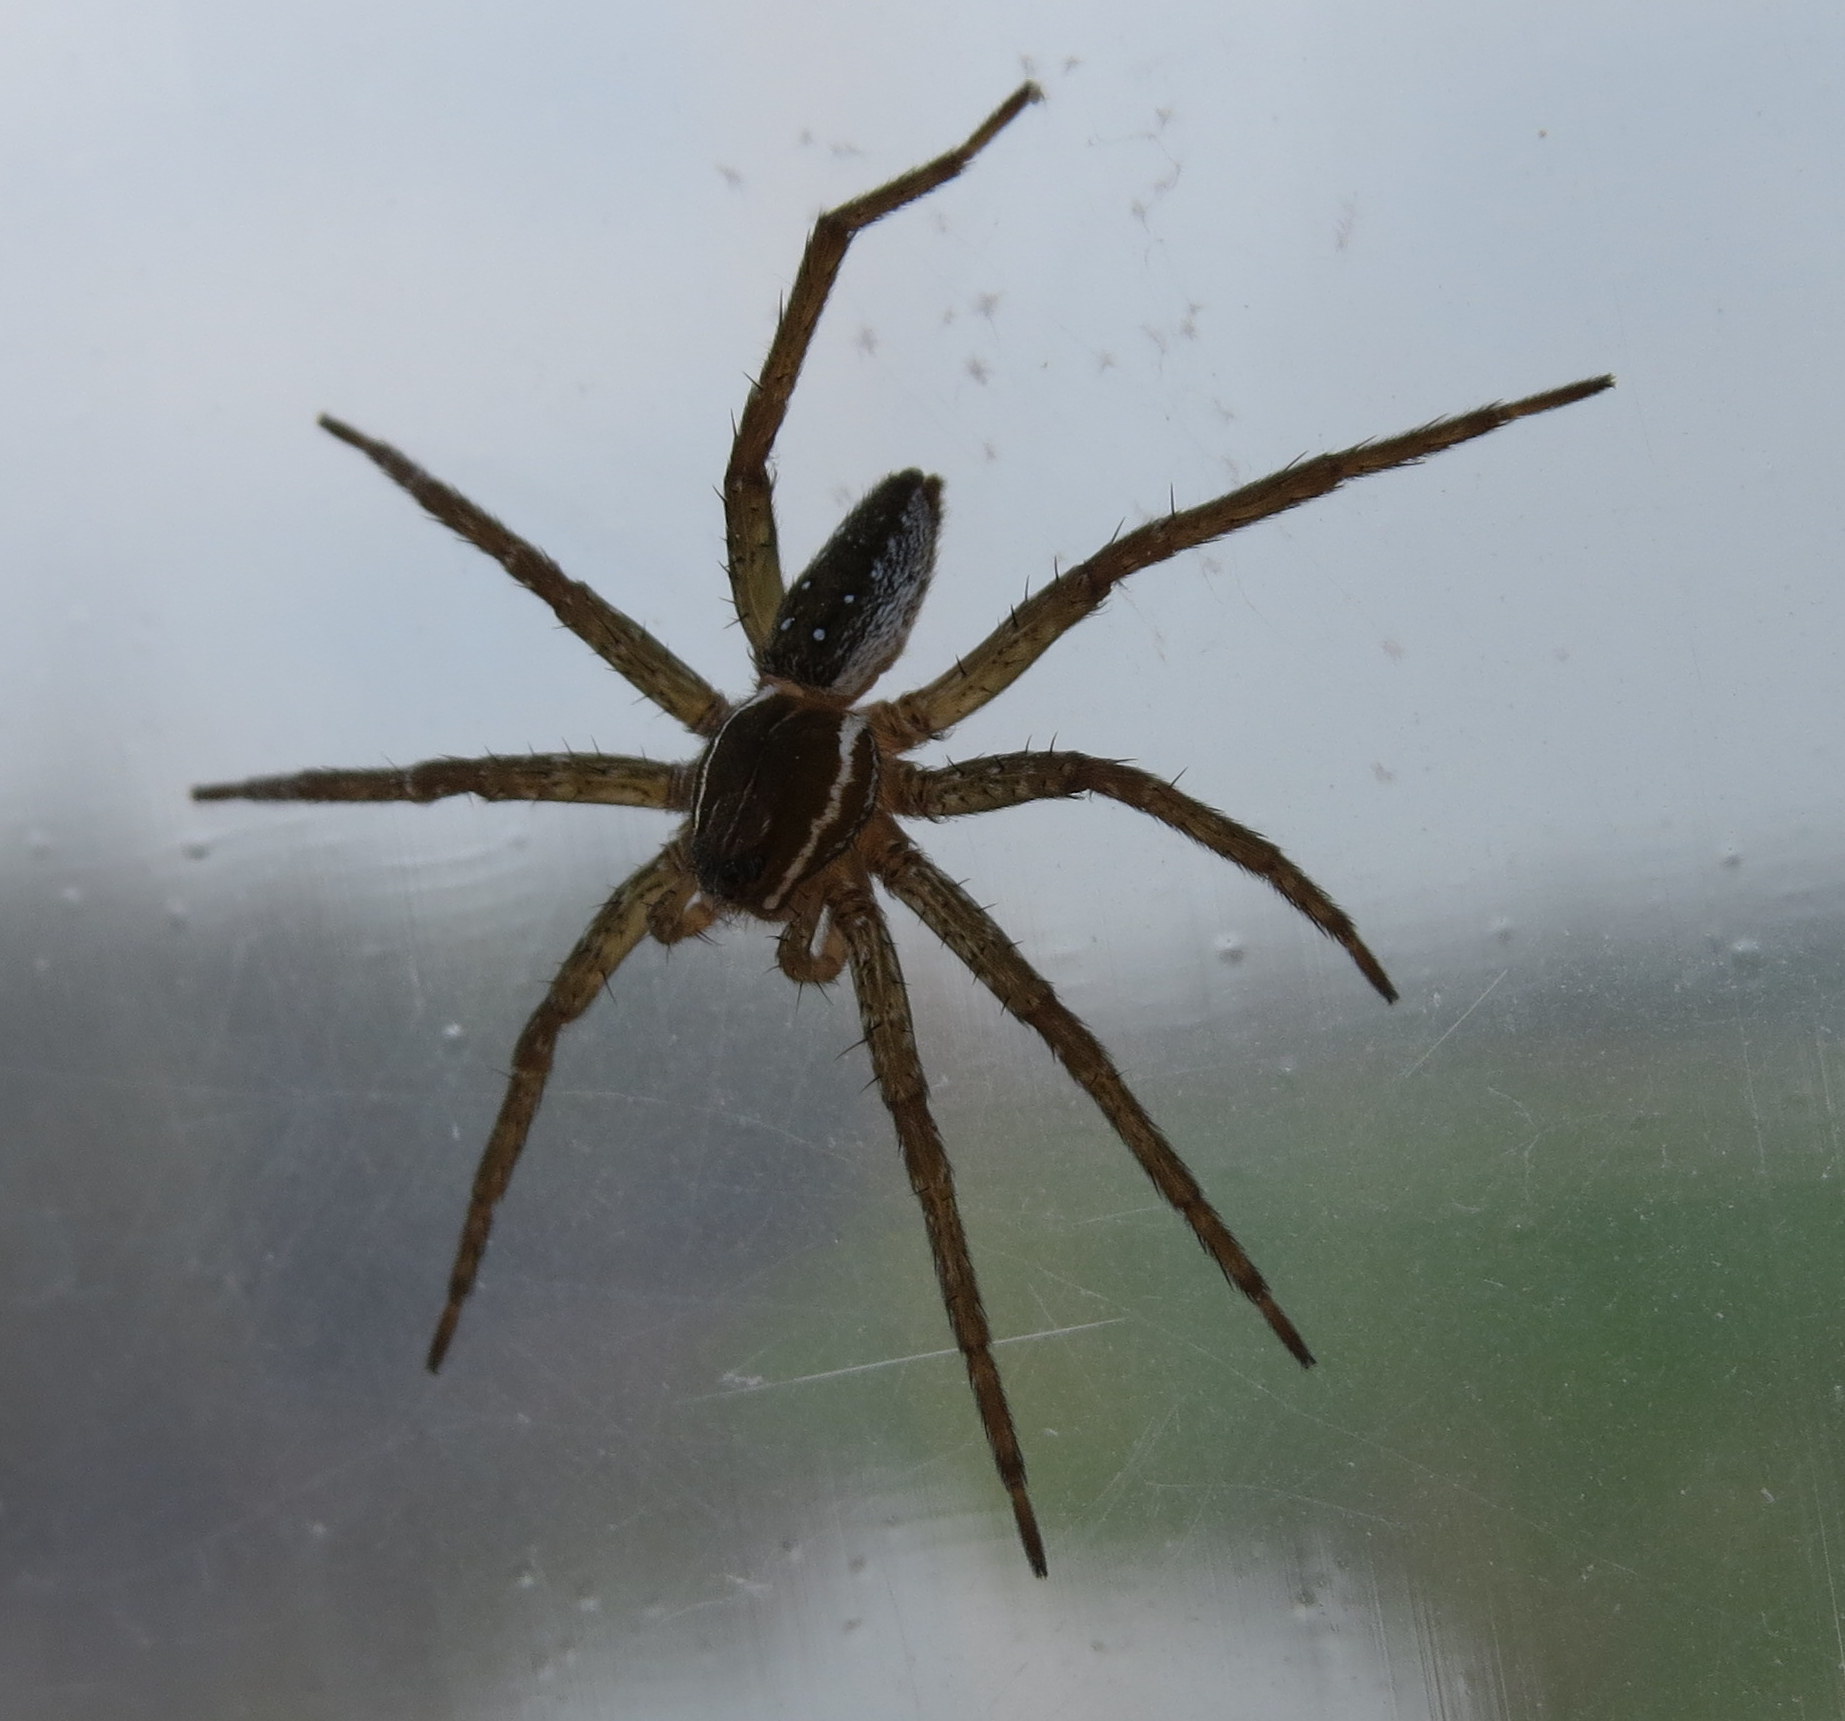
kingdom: Animalia
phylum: Arthropoda
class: Arachnida
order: Araneae
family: Pisauridae
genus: Dolomedes
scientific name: Dolomedes triton
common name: Six-spotted fishing spider
